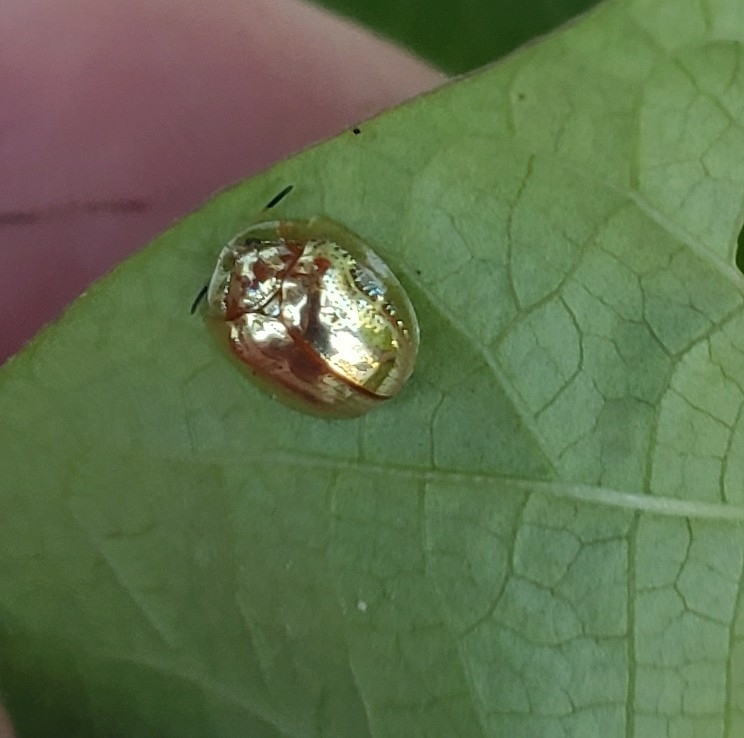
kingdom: Animalia
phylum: Arthropoda
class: Insecta
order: Coleoptera
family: Chrysomelidae
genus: Charidotella
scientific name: Charidotella sexpunctata
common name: Golden tortoise beetle
